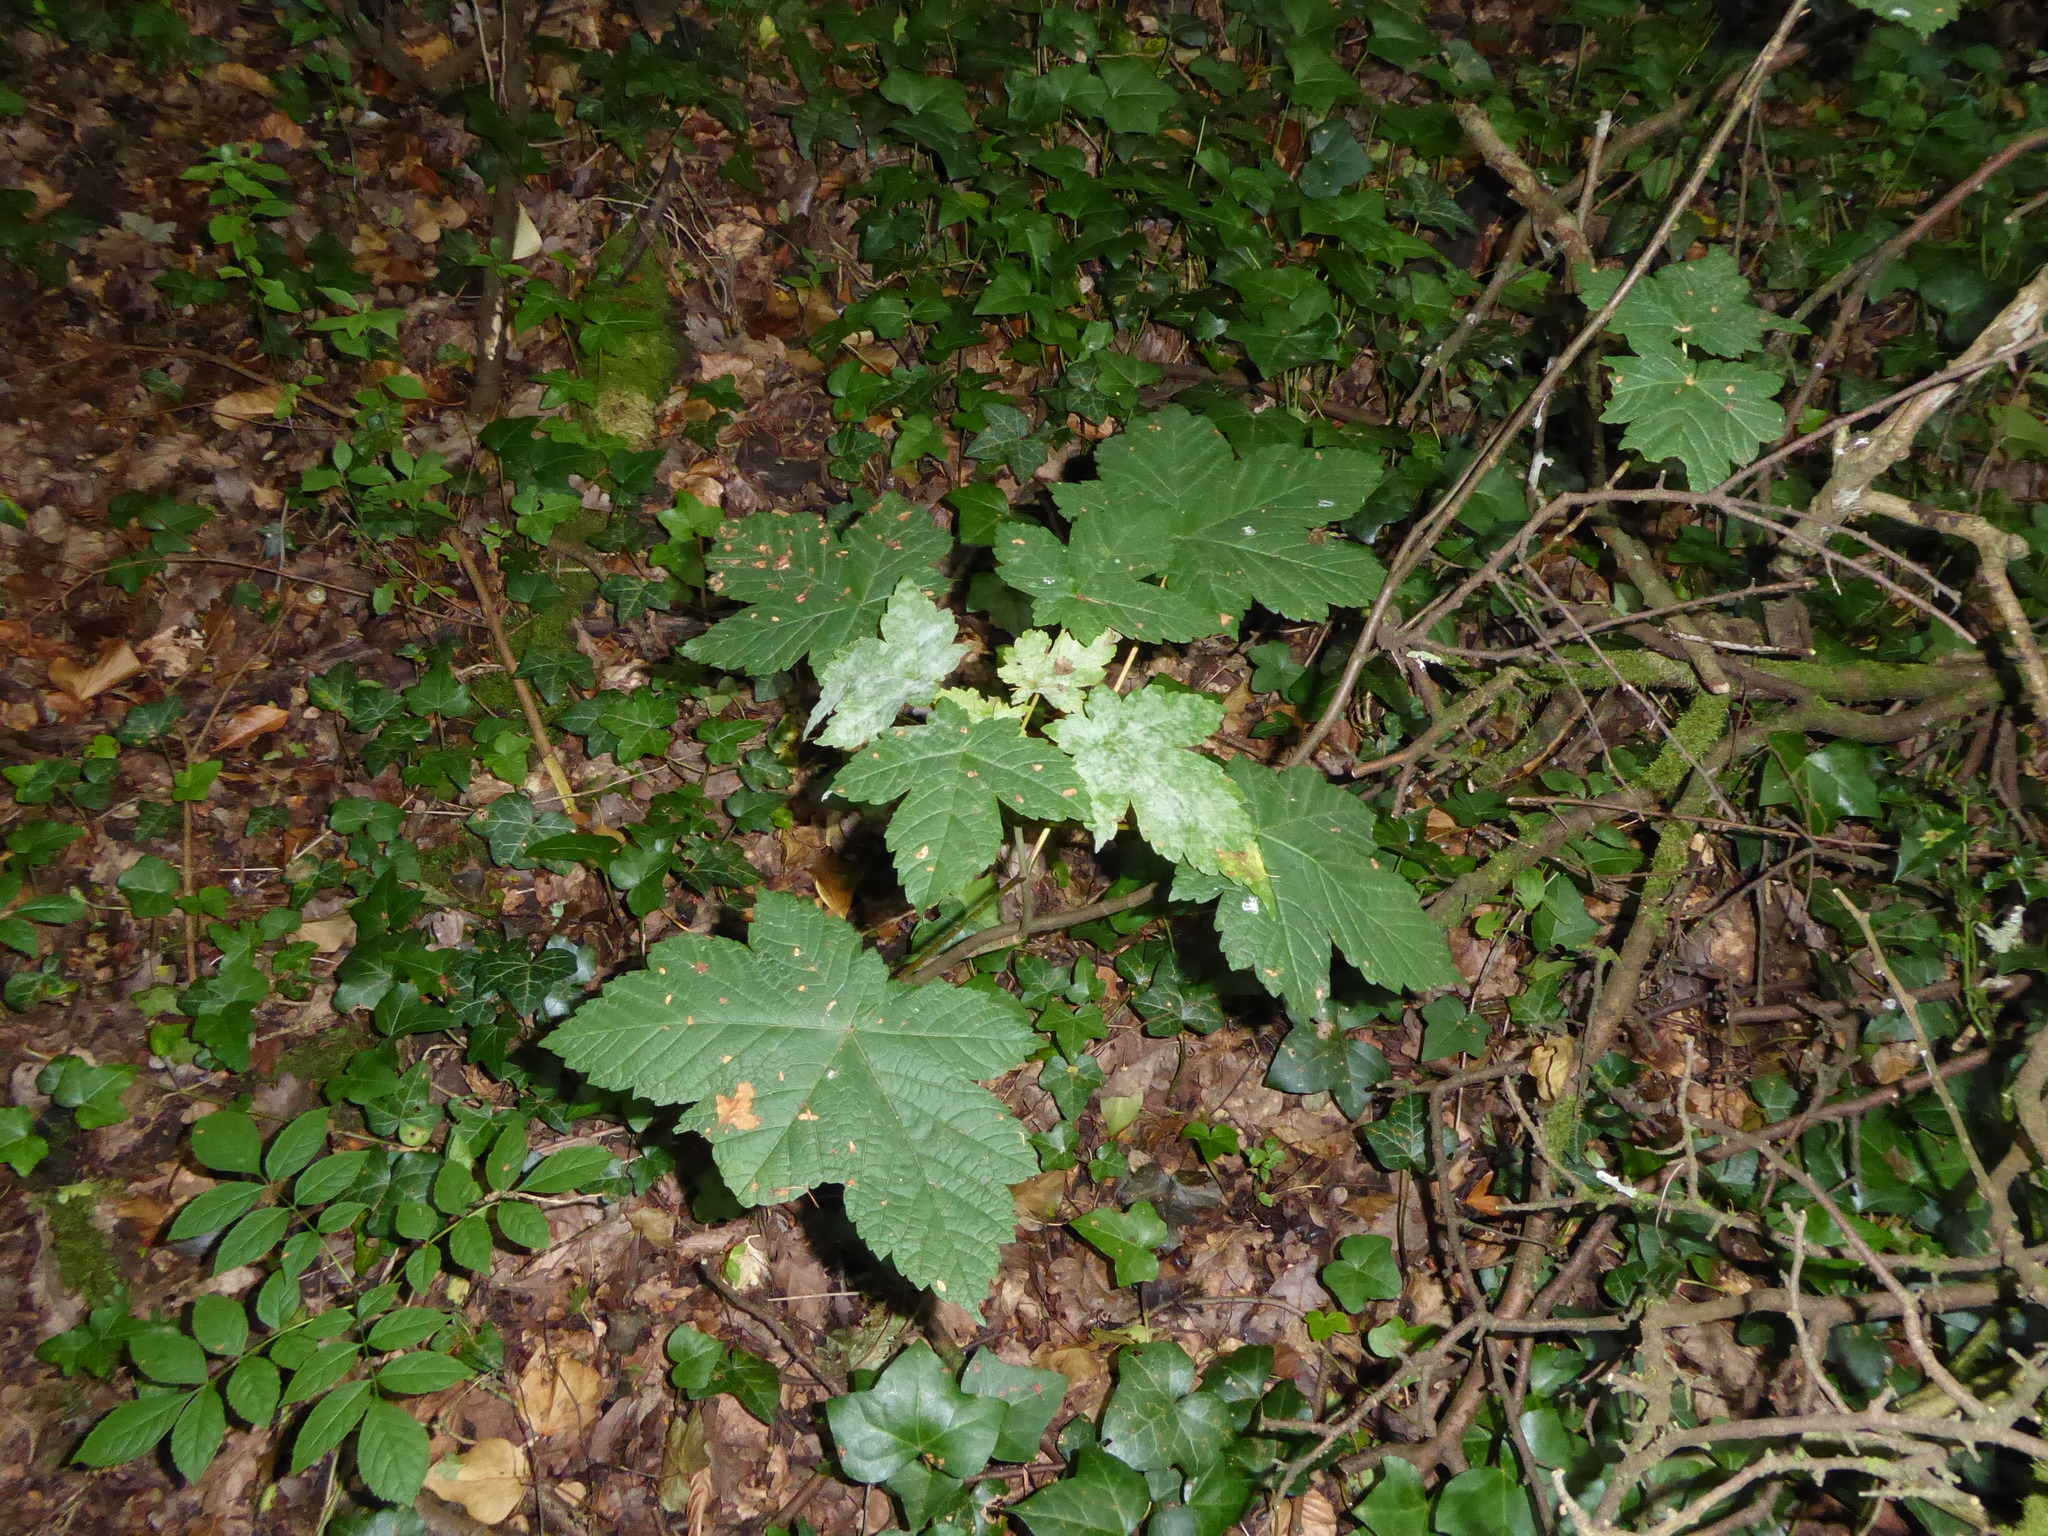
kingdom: Plantae
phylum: Tracheophyta
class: Magnoliopsida
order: Sapindales
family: Sapindaceae
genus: Acer
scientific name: Acer pseudoplatanus
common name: Sycamore
